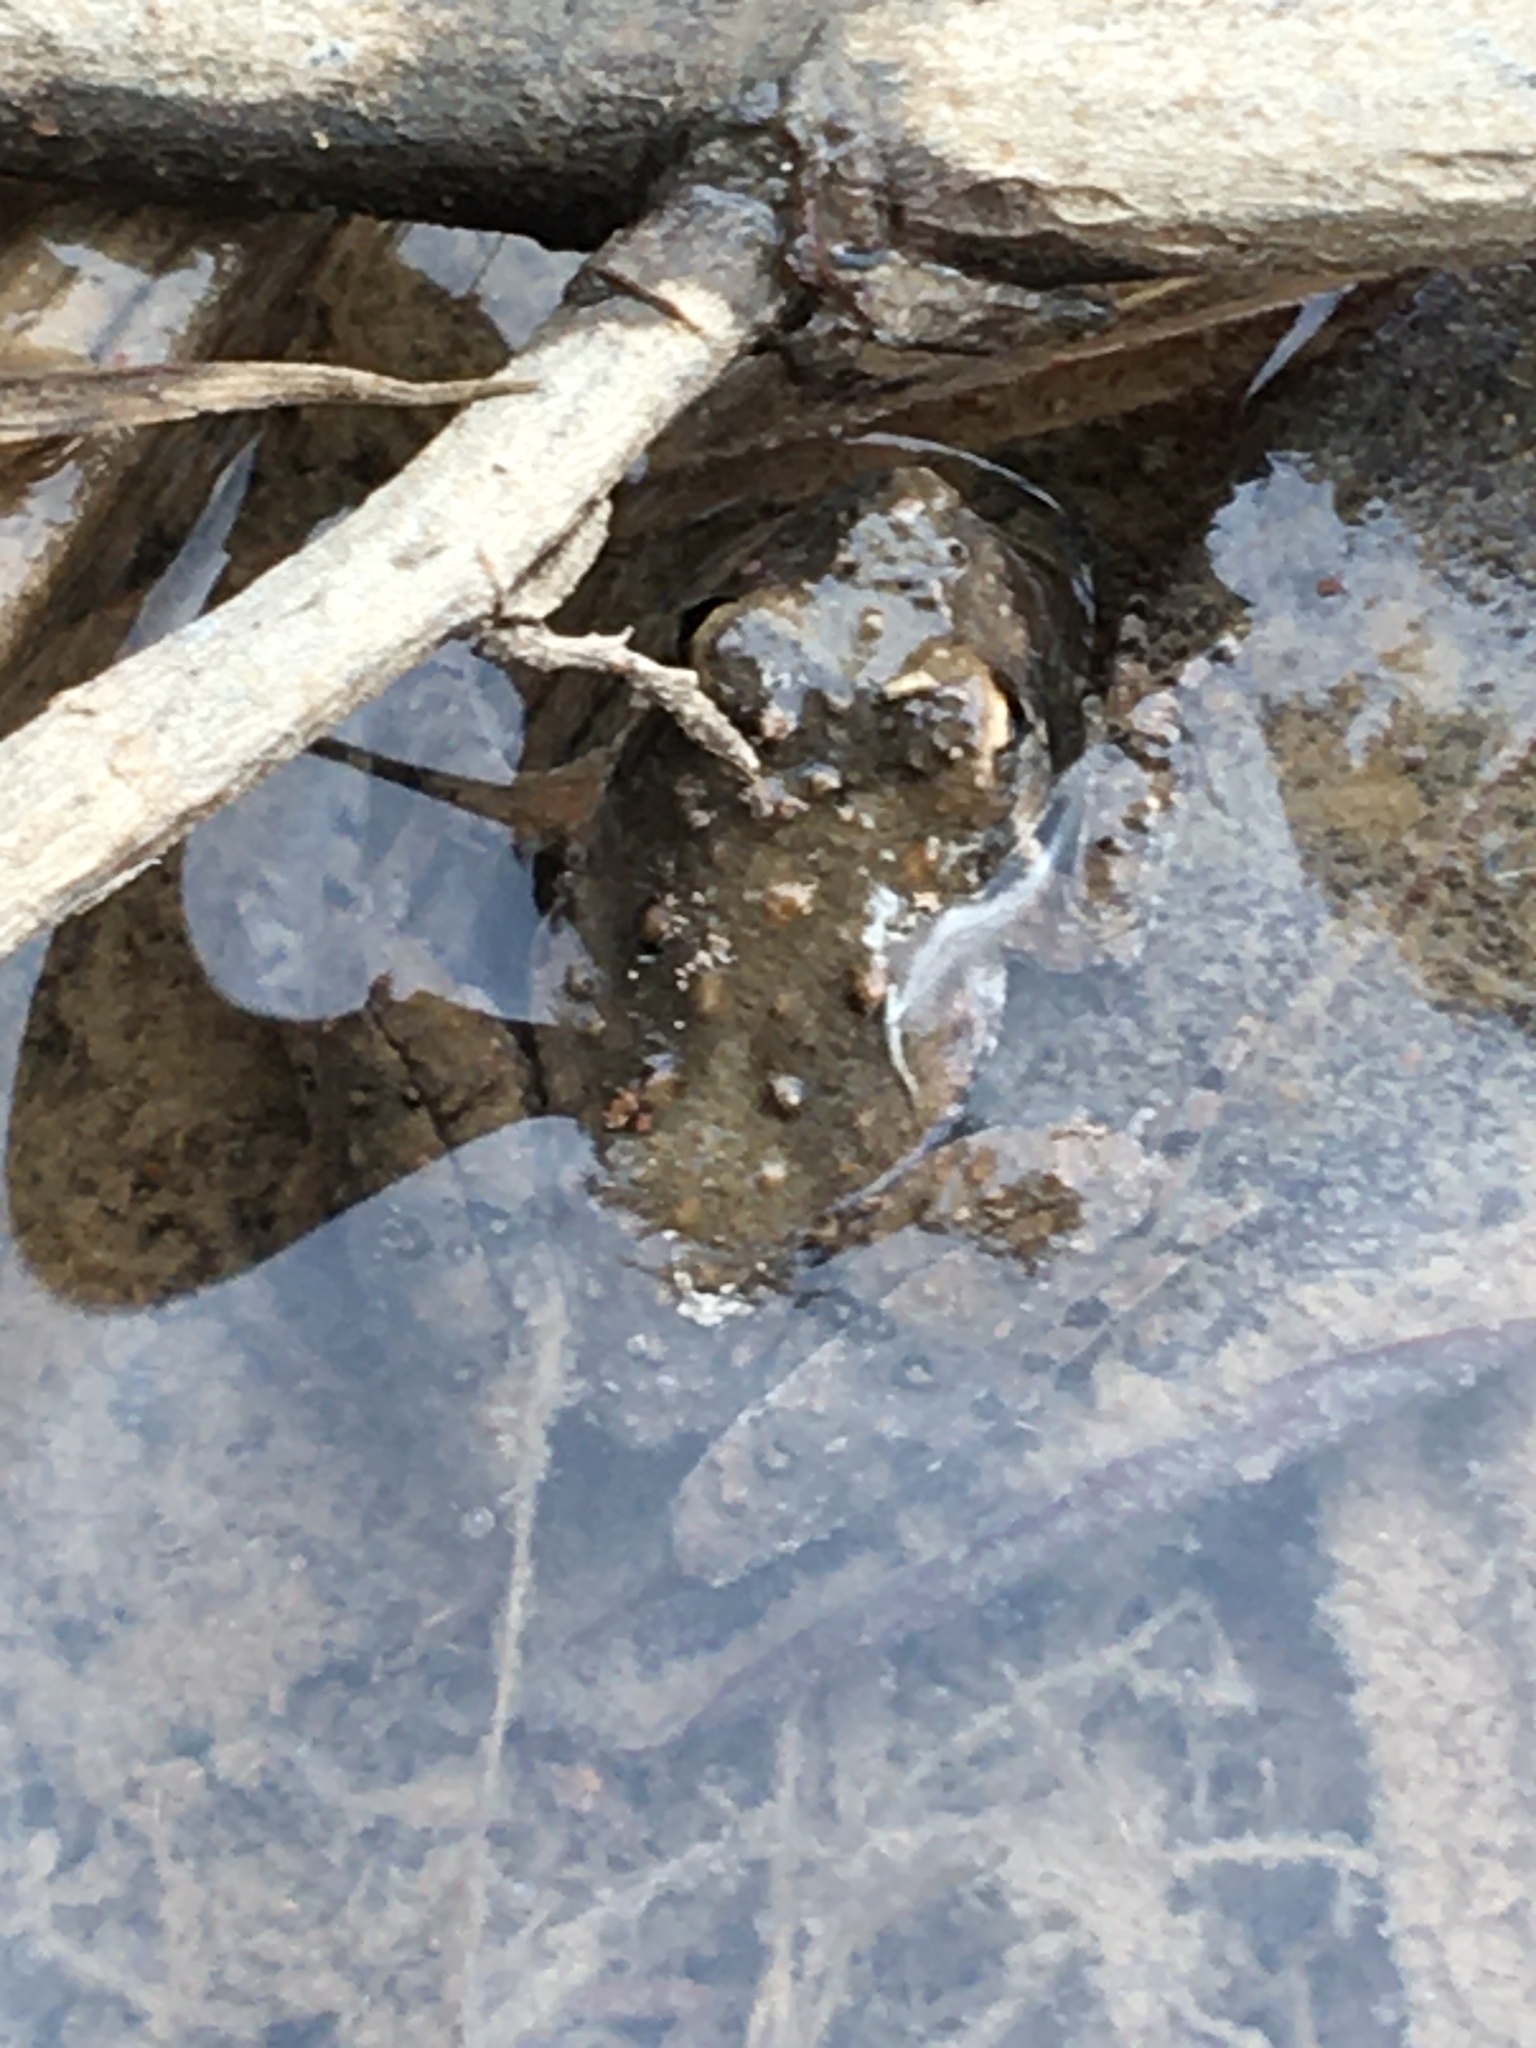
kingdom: Animalia
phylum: Chordata
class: Amphibia
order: Anura
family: Hylidae
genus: Acris
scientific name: Acris blanchardi
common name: Blanchard's cricket frog
